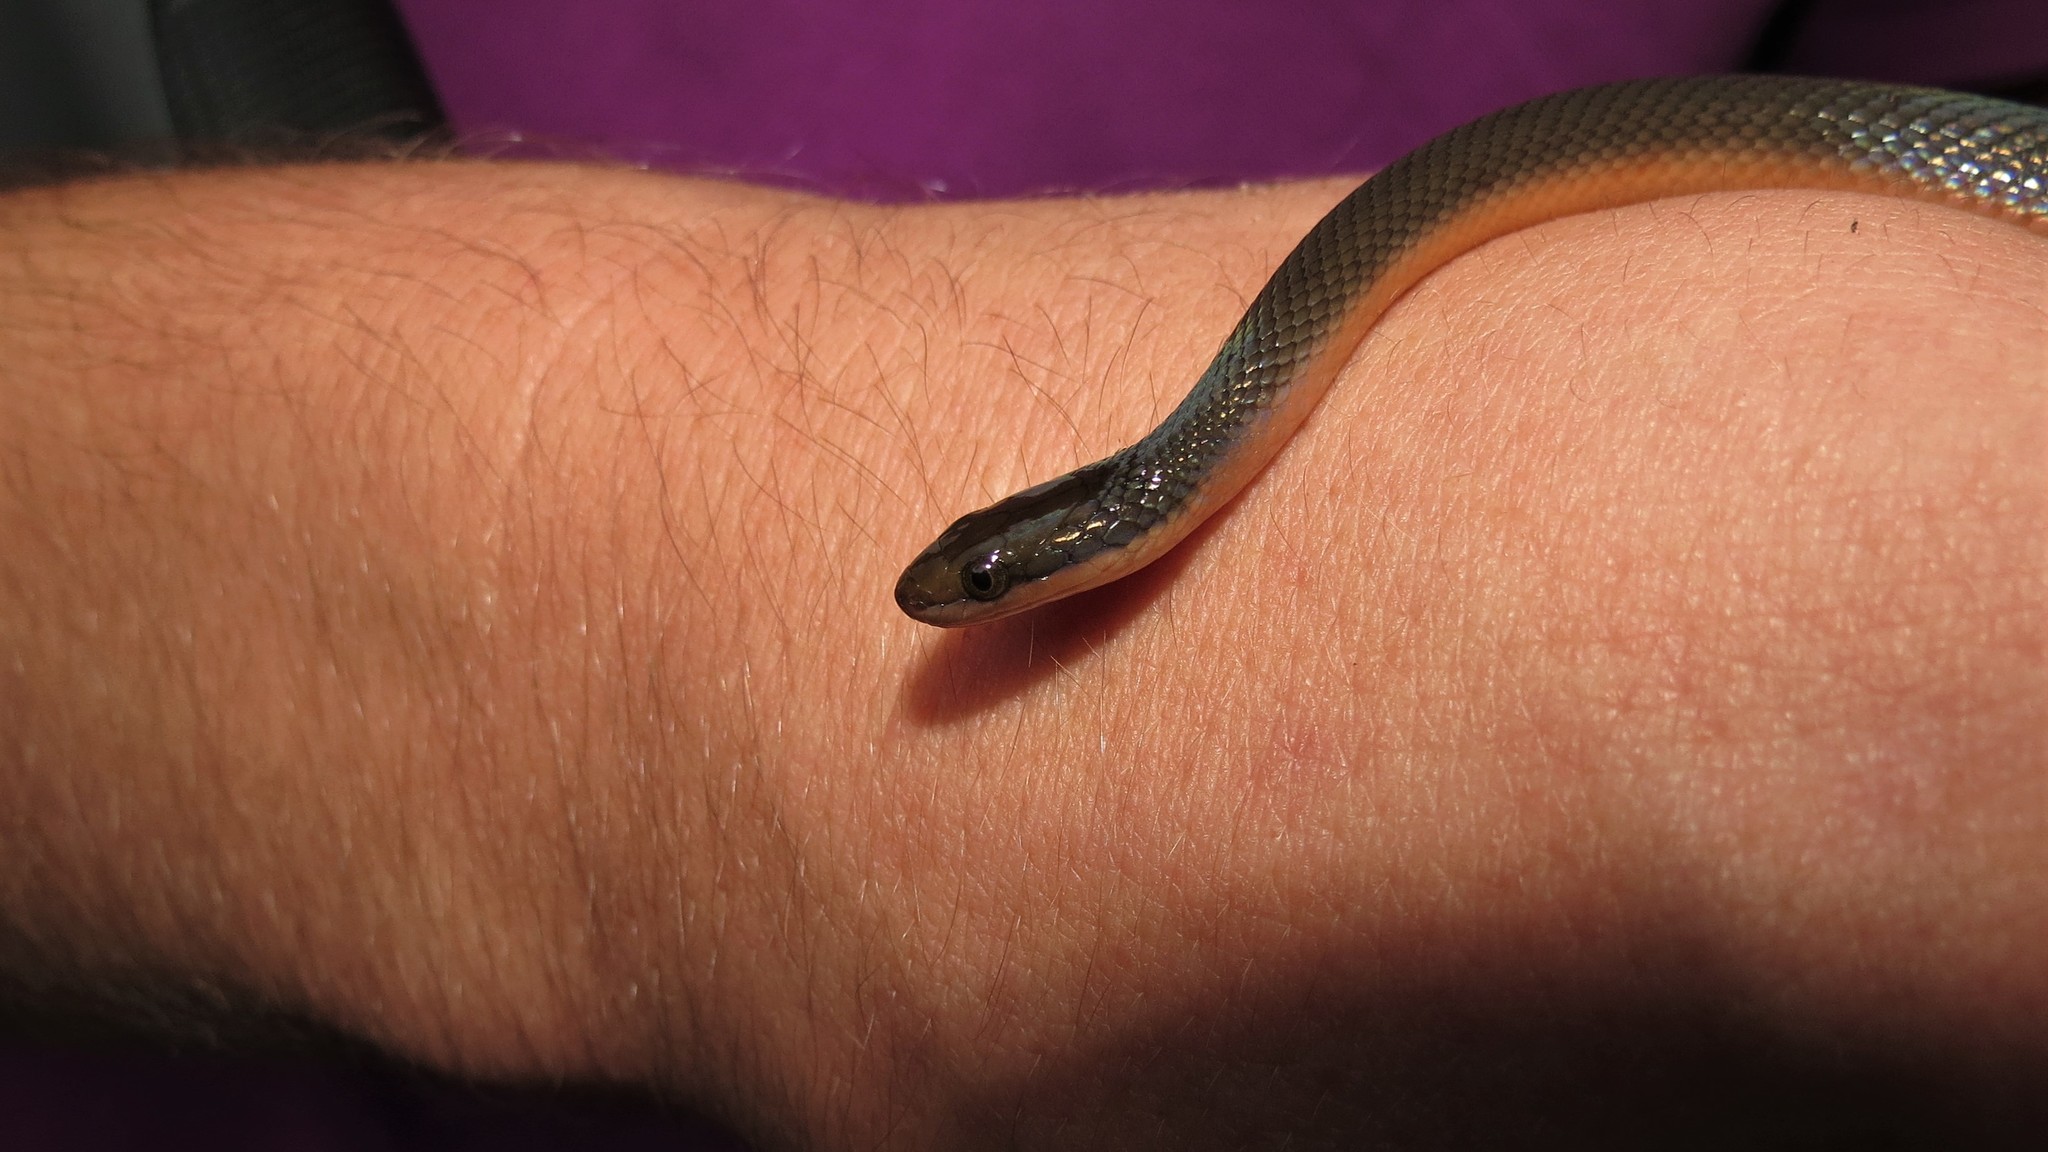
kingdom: Animalia
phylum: Chordata
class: Squamata
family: Lamprophiidae
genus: Lycodonomorphus
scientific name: Lycodonomorphus rufulus
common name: Brown water snake
